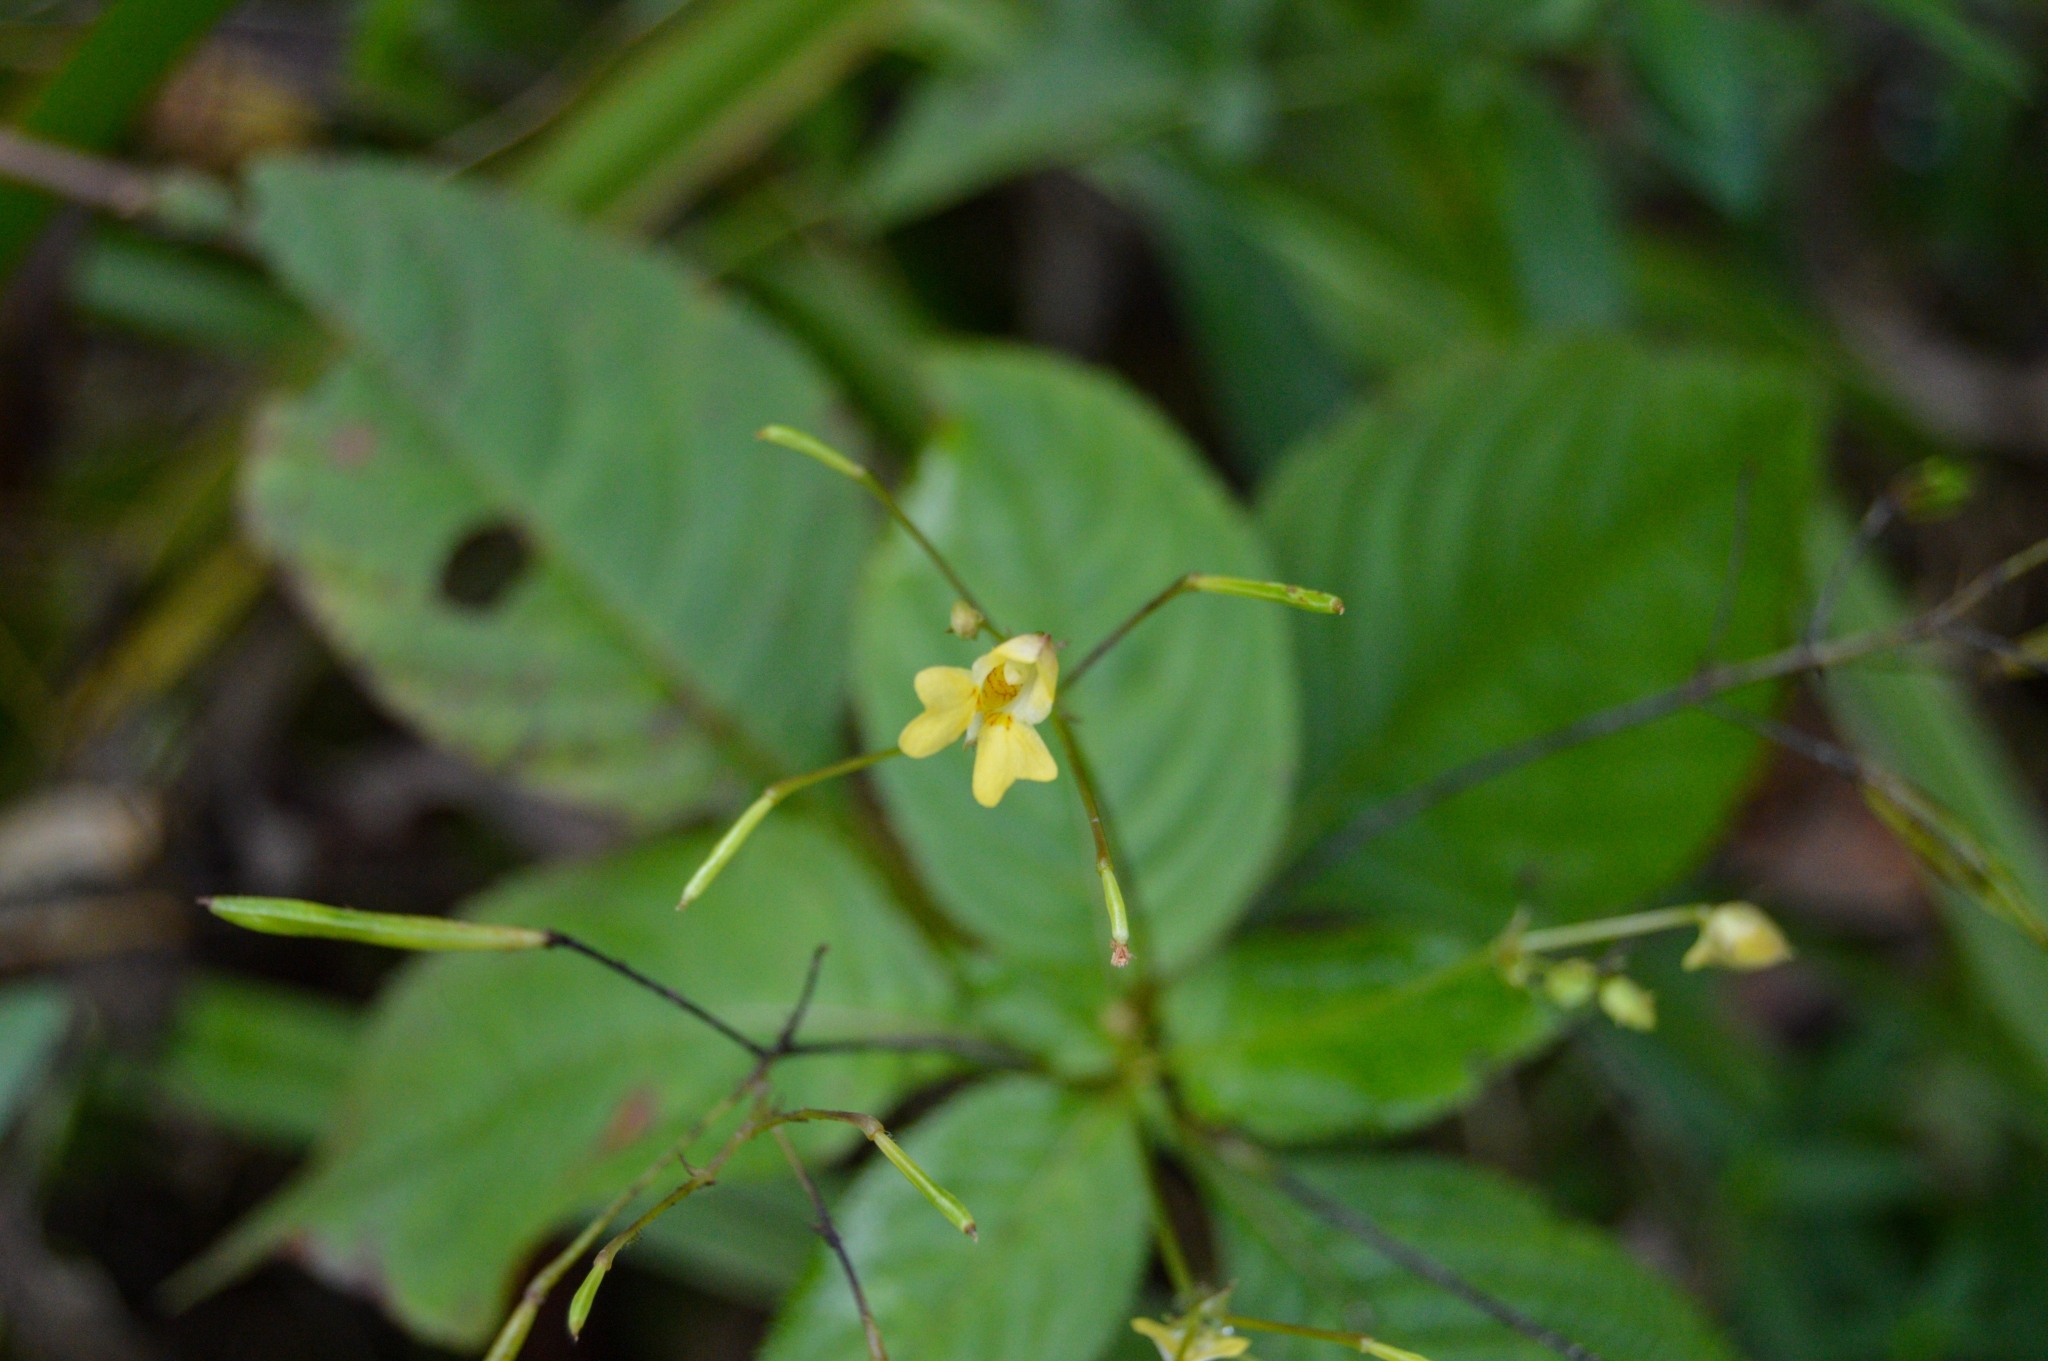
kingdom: Plantae
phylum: Tracheophyta
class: Magnoliopsida
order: Ericales
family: Balsaminaceae
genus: Impatiens
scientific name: Impatiens parviflora
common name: Small balsam
